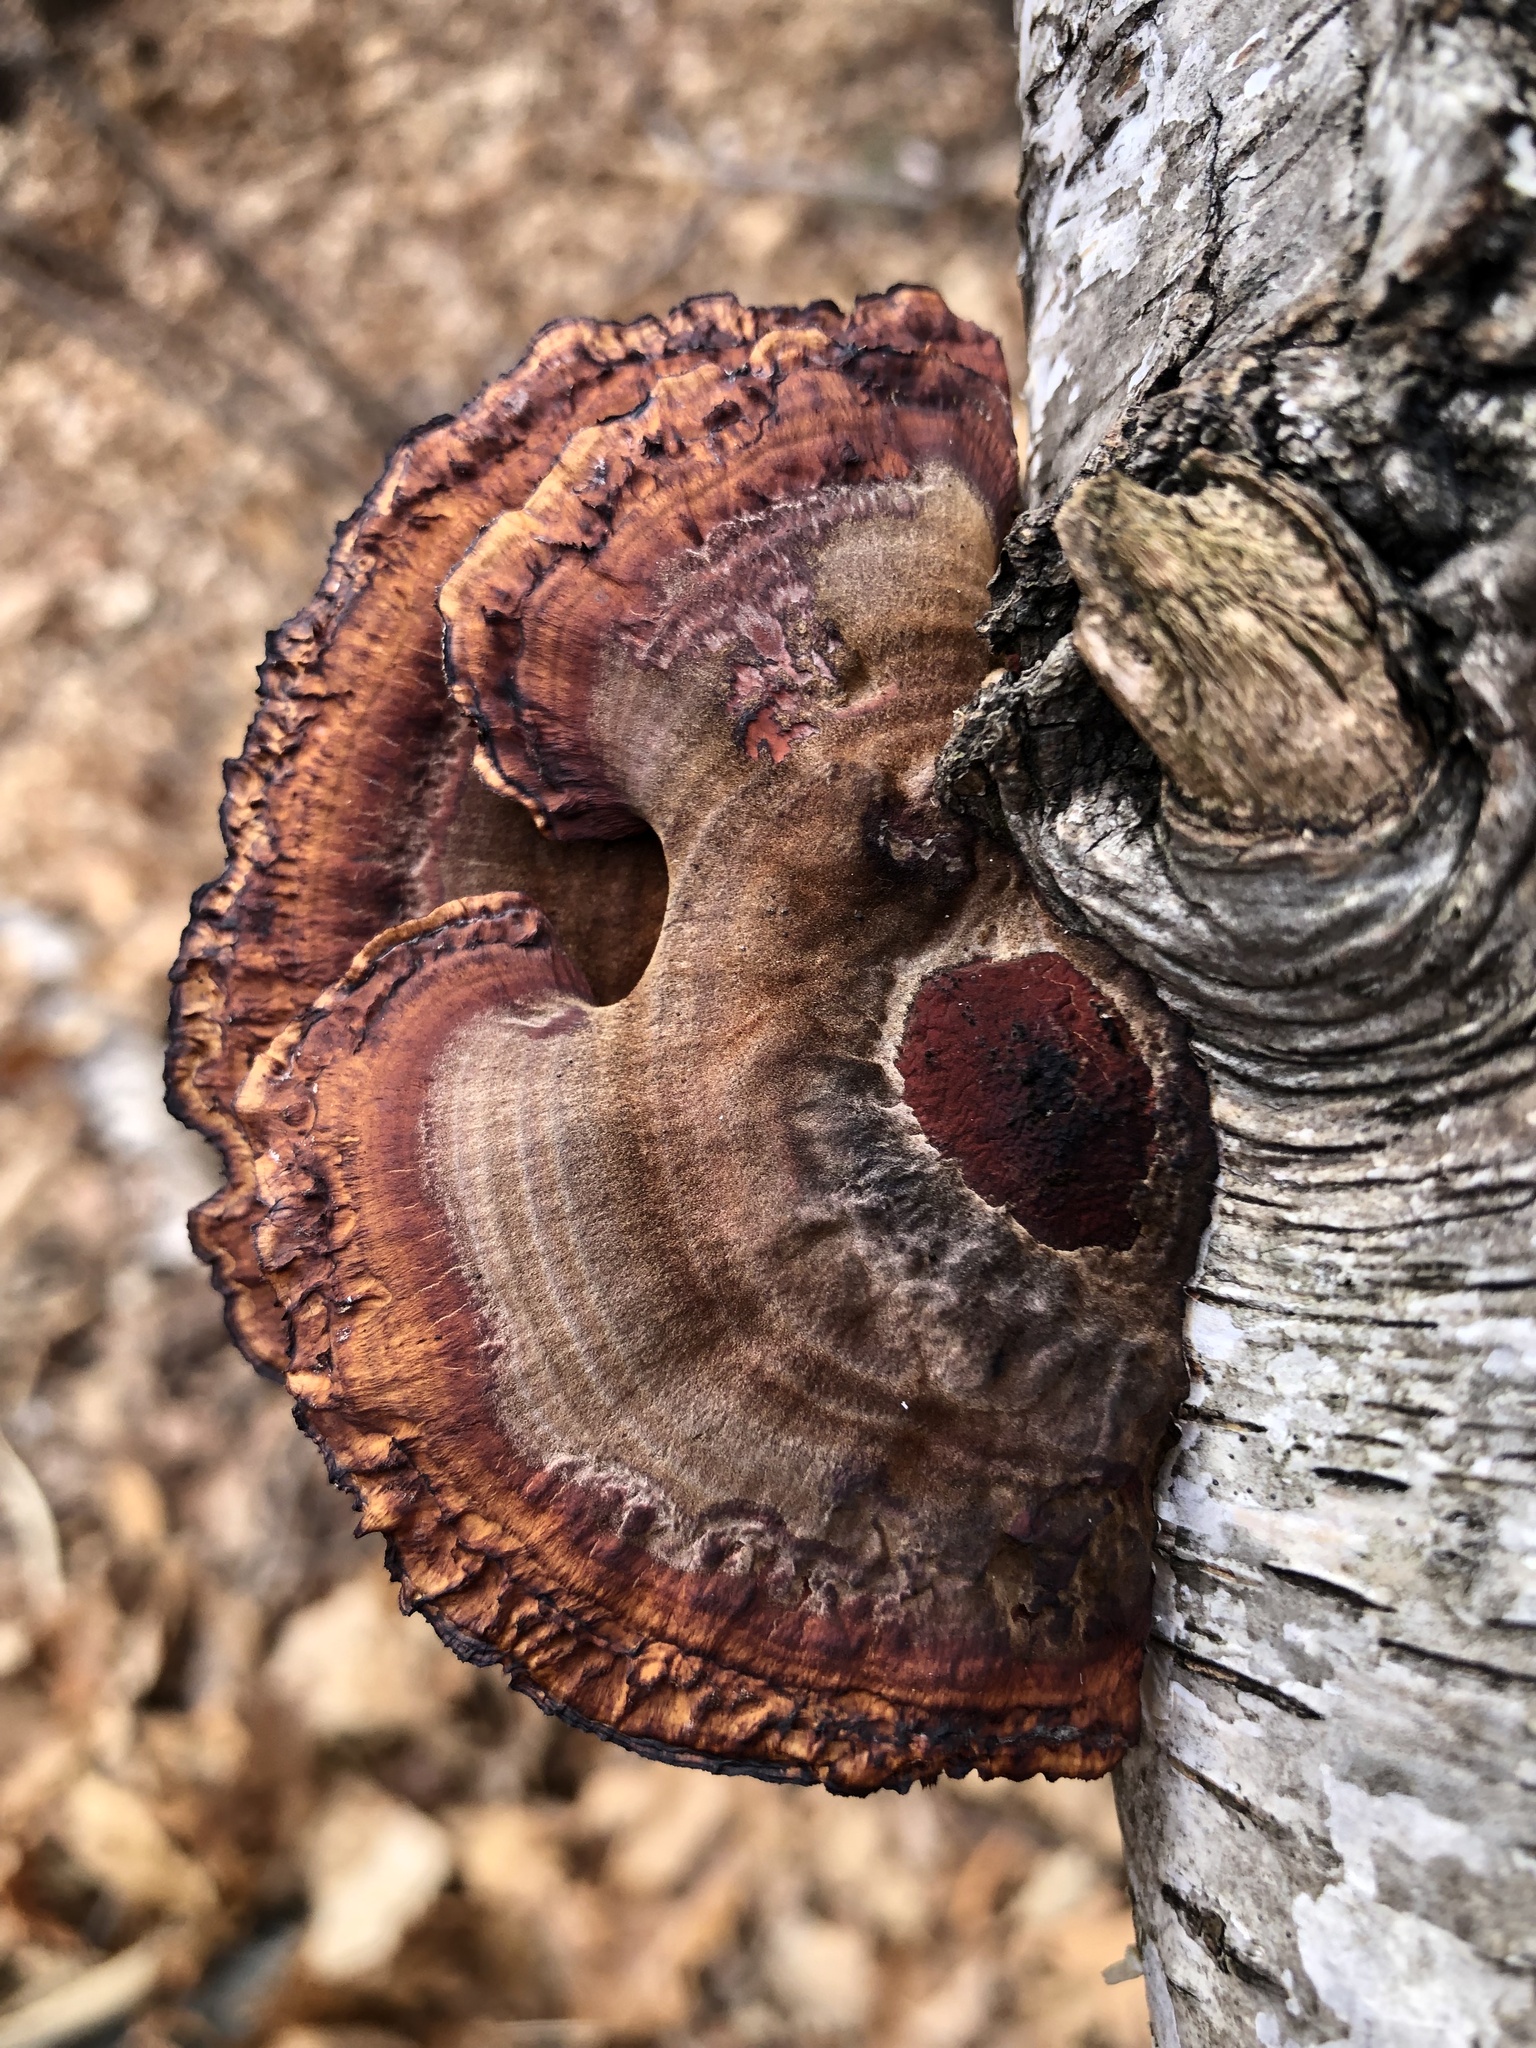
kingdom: Fungi
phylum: Basidiomycota
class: Agaricomycetes
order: Polyporales
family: Polyporaceae
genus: Daedaleopsis
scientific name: Daedaleopsis tricolor
